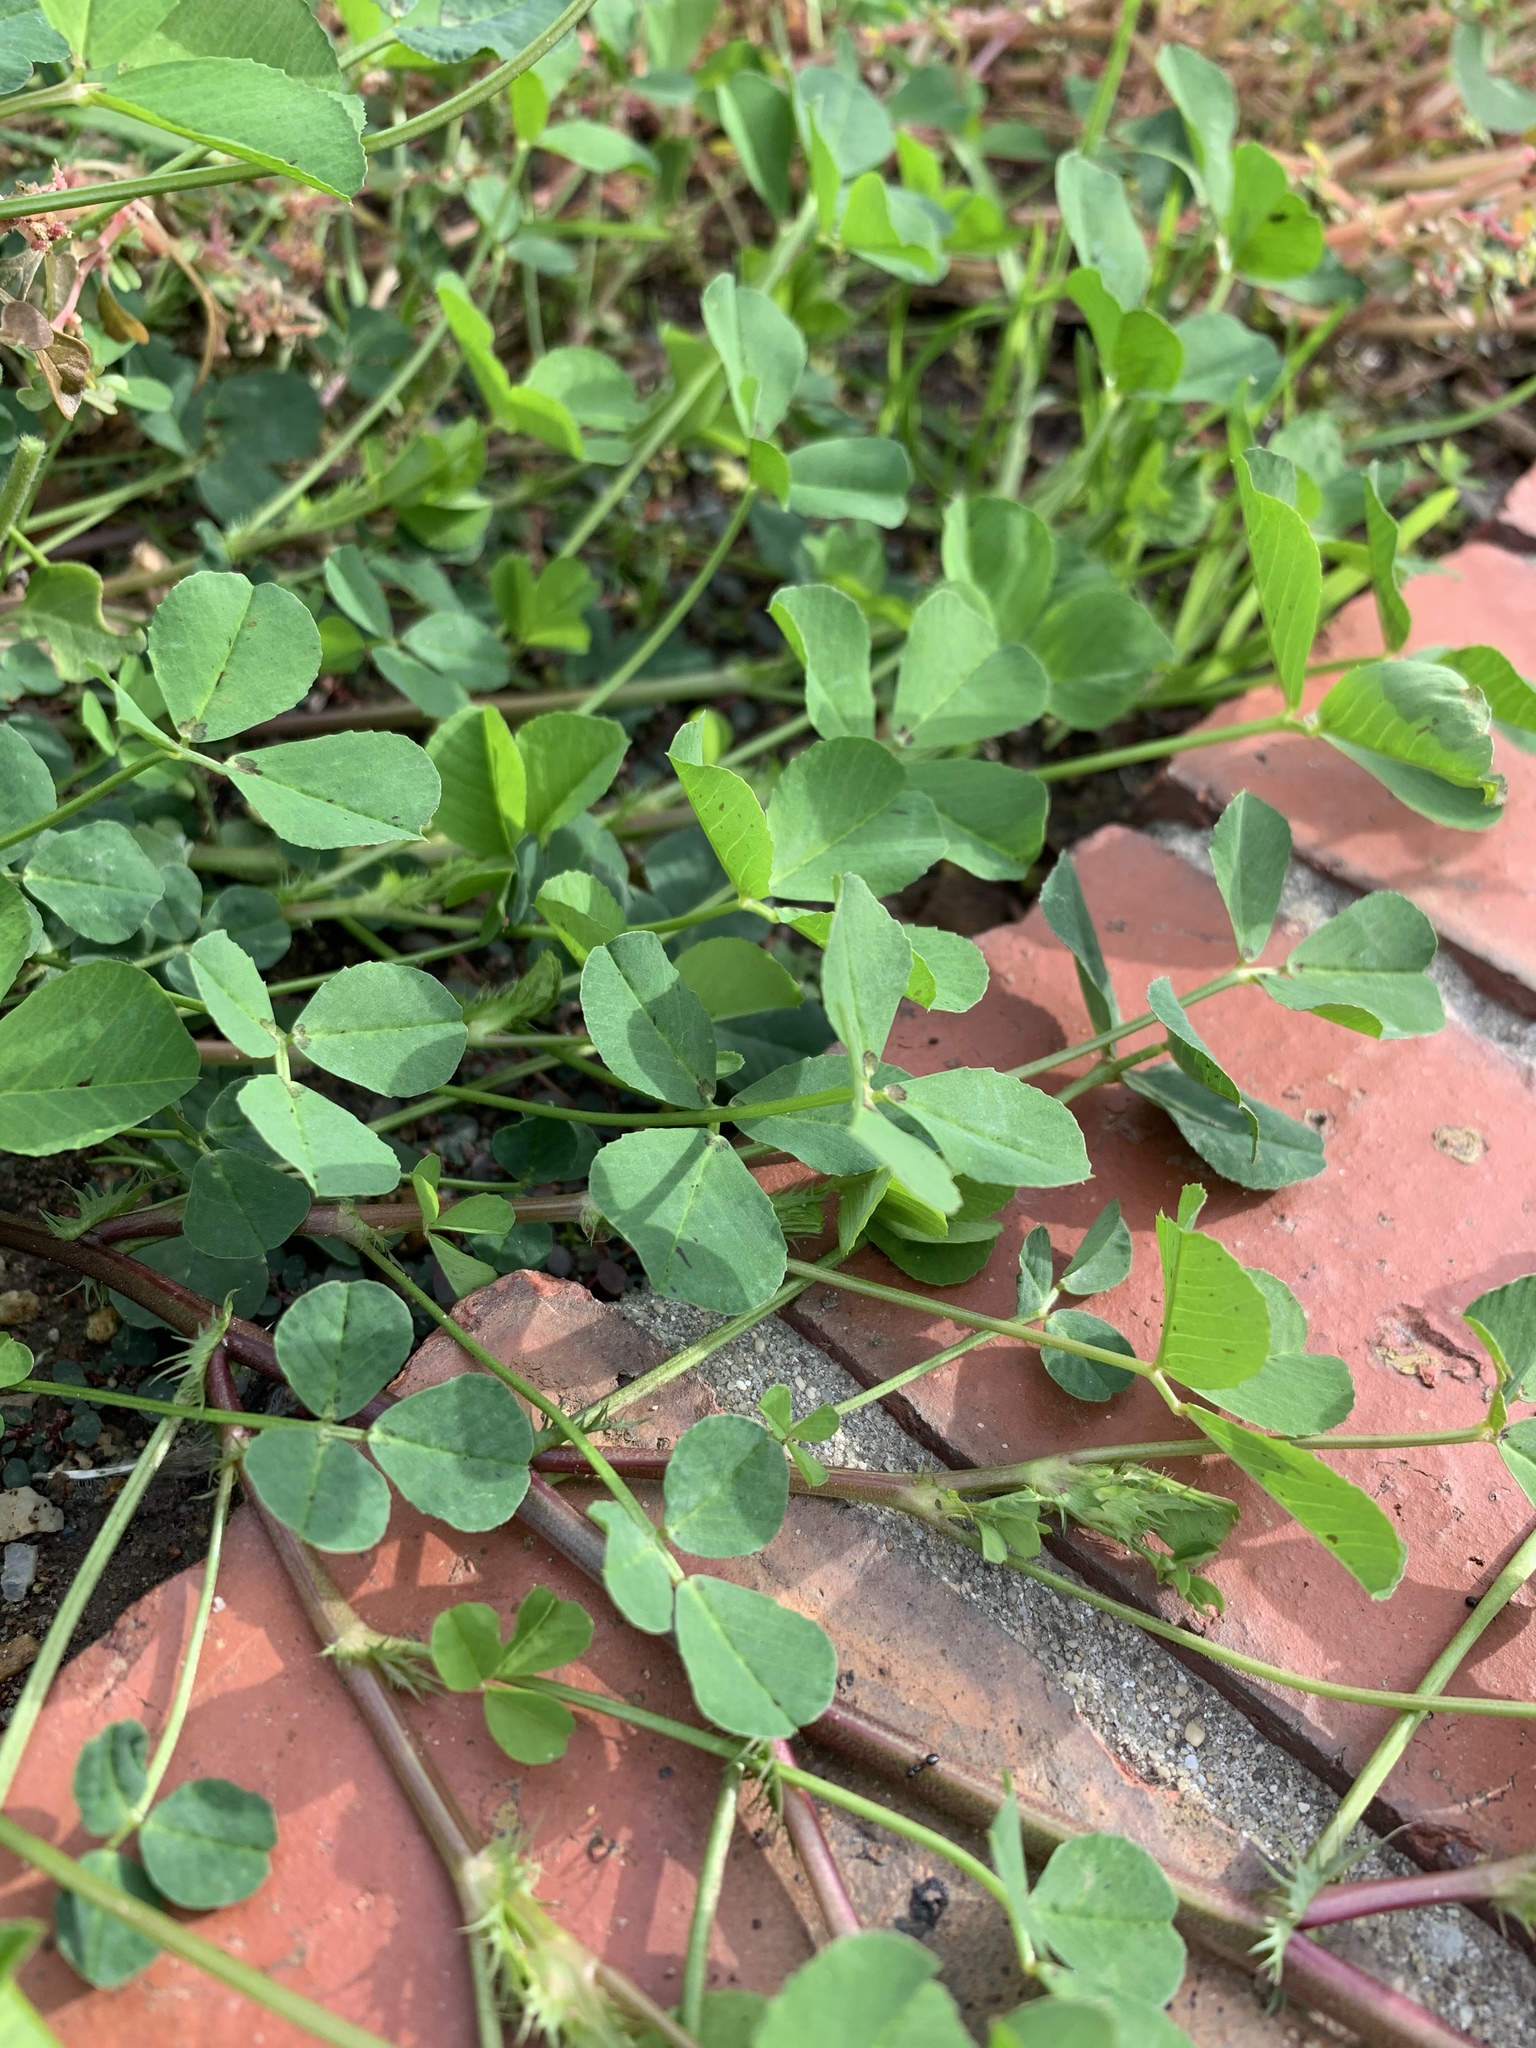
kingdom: Plantae
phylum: Tracheophyta
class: Magnoliopsida
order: Fabales
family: Fabaceae
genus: Medicago
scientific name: Medicago polymorpha
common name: Burclover
